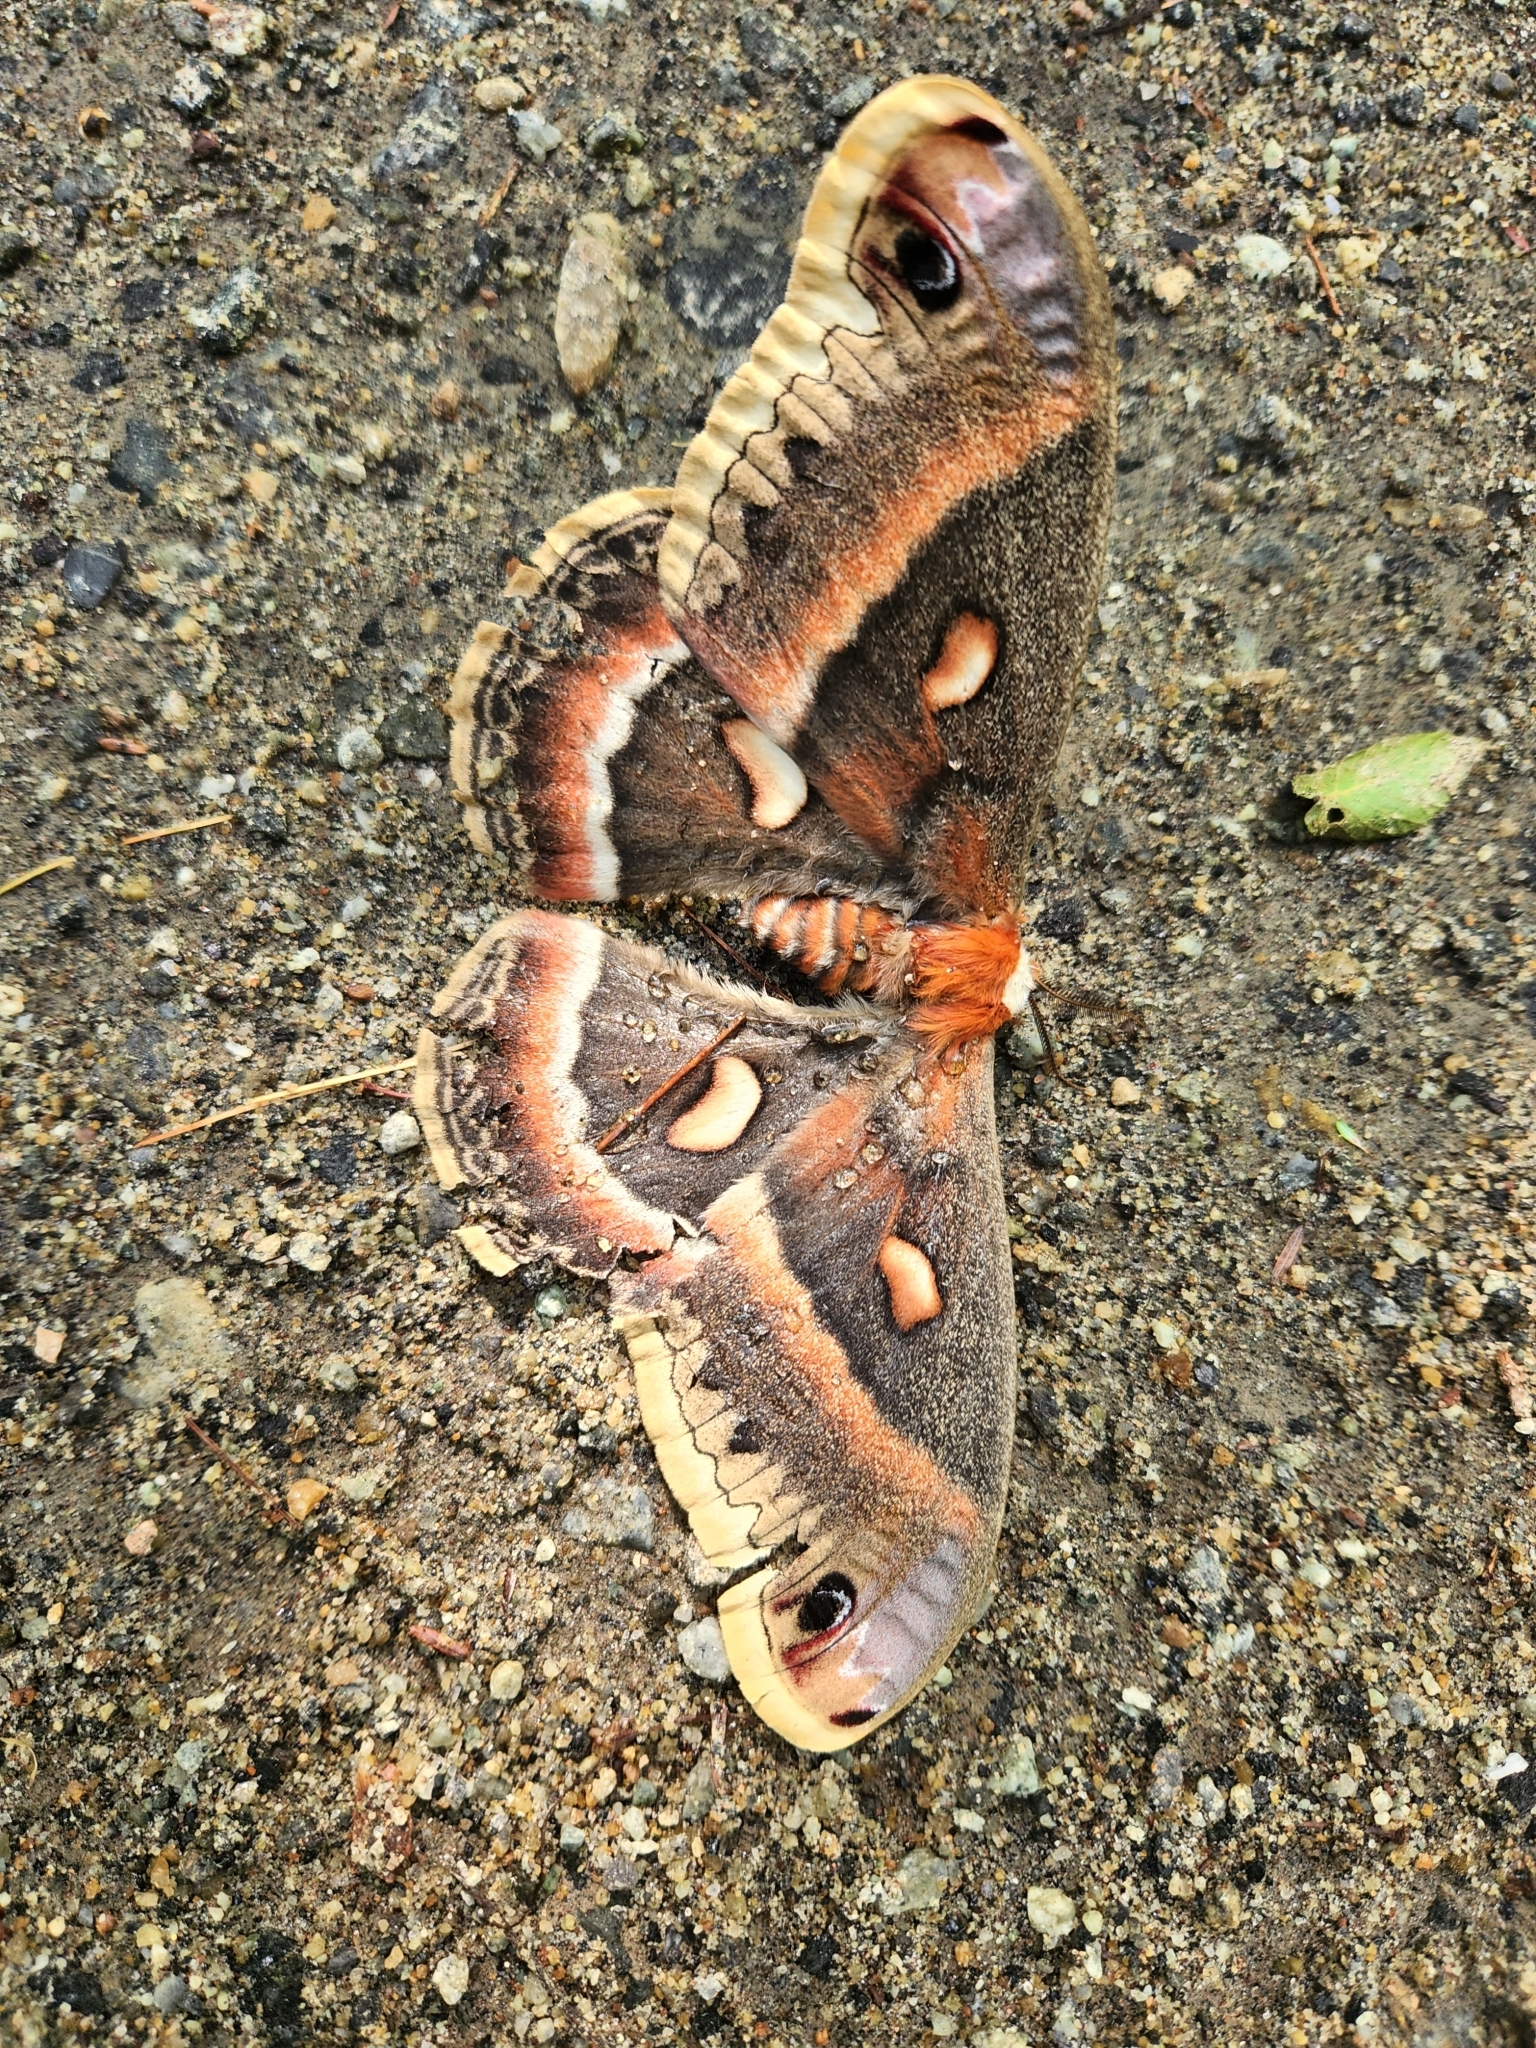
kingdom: Animalia
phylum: Arthropoda
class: Insecta
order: Lepidoptera
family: Saturniidae
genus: Hyalophora
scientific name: Hyalophora cecropia
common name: Cecropia silkmoth
